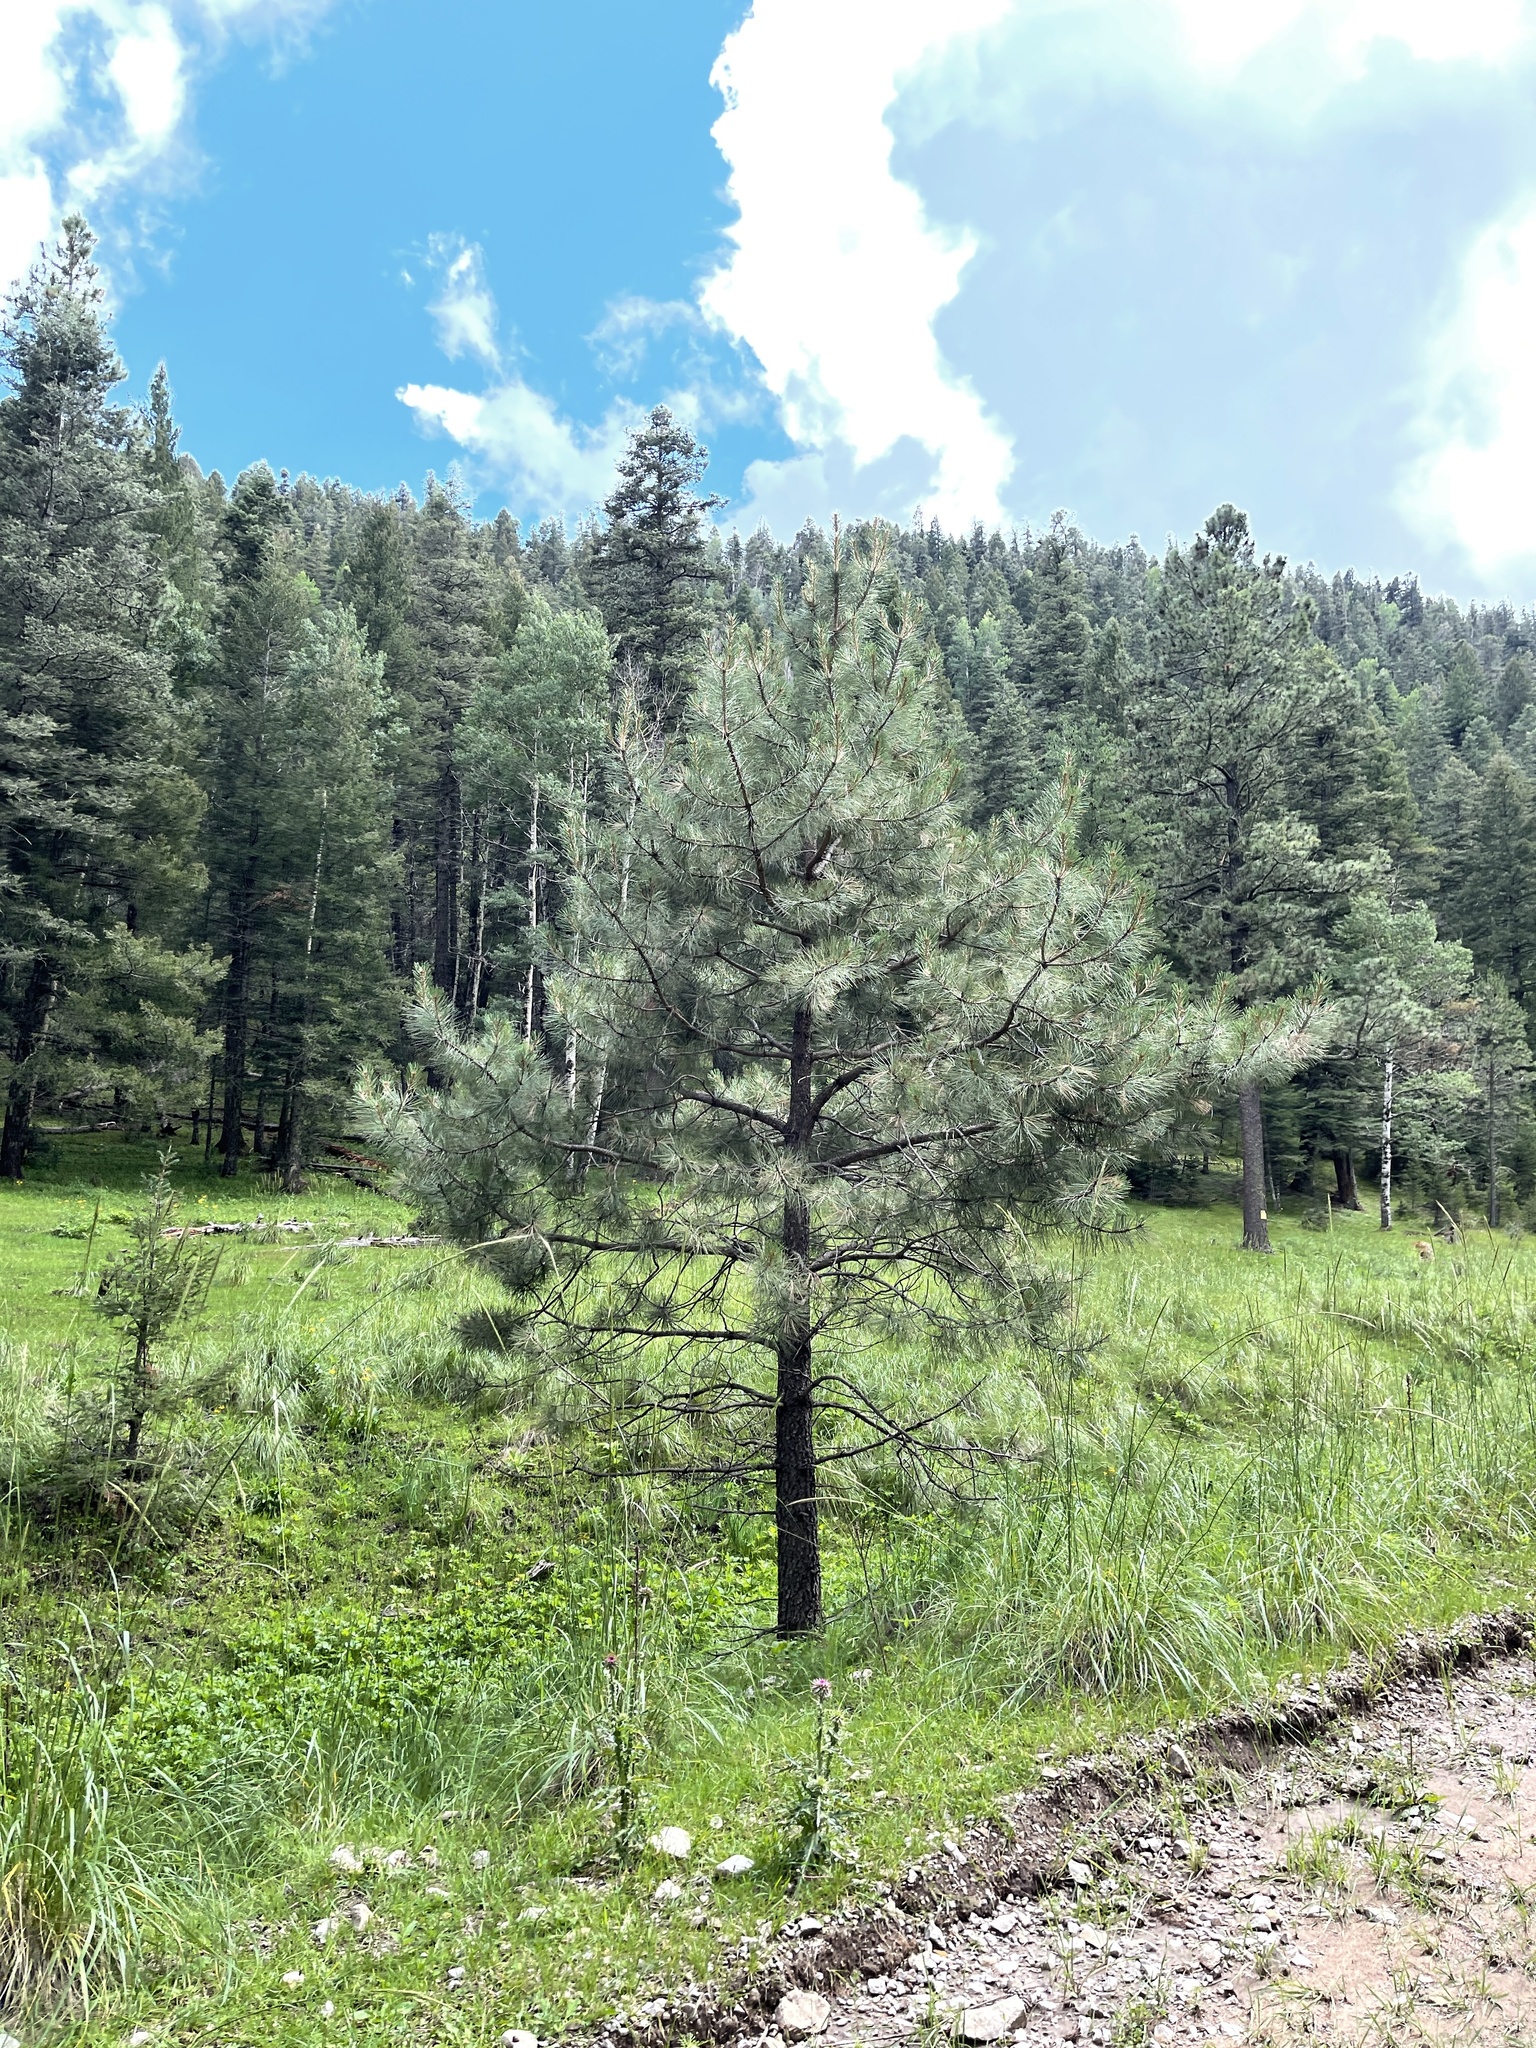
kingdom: Plantae
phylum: Tracheophyta
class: Pinopsida
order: Pinales
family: Pinaceae
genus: Pinus
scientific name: Pinus ponderosa
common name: Western yellow-pine
